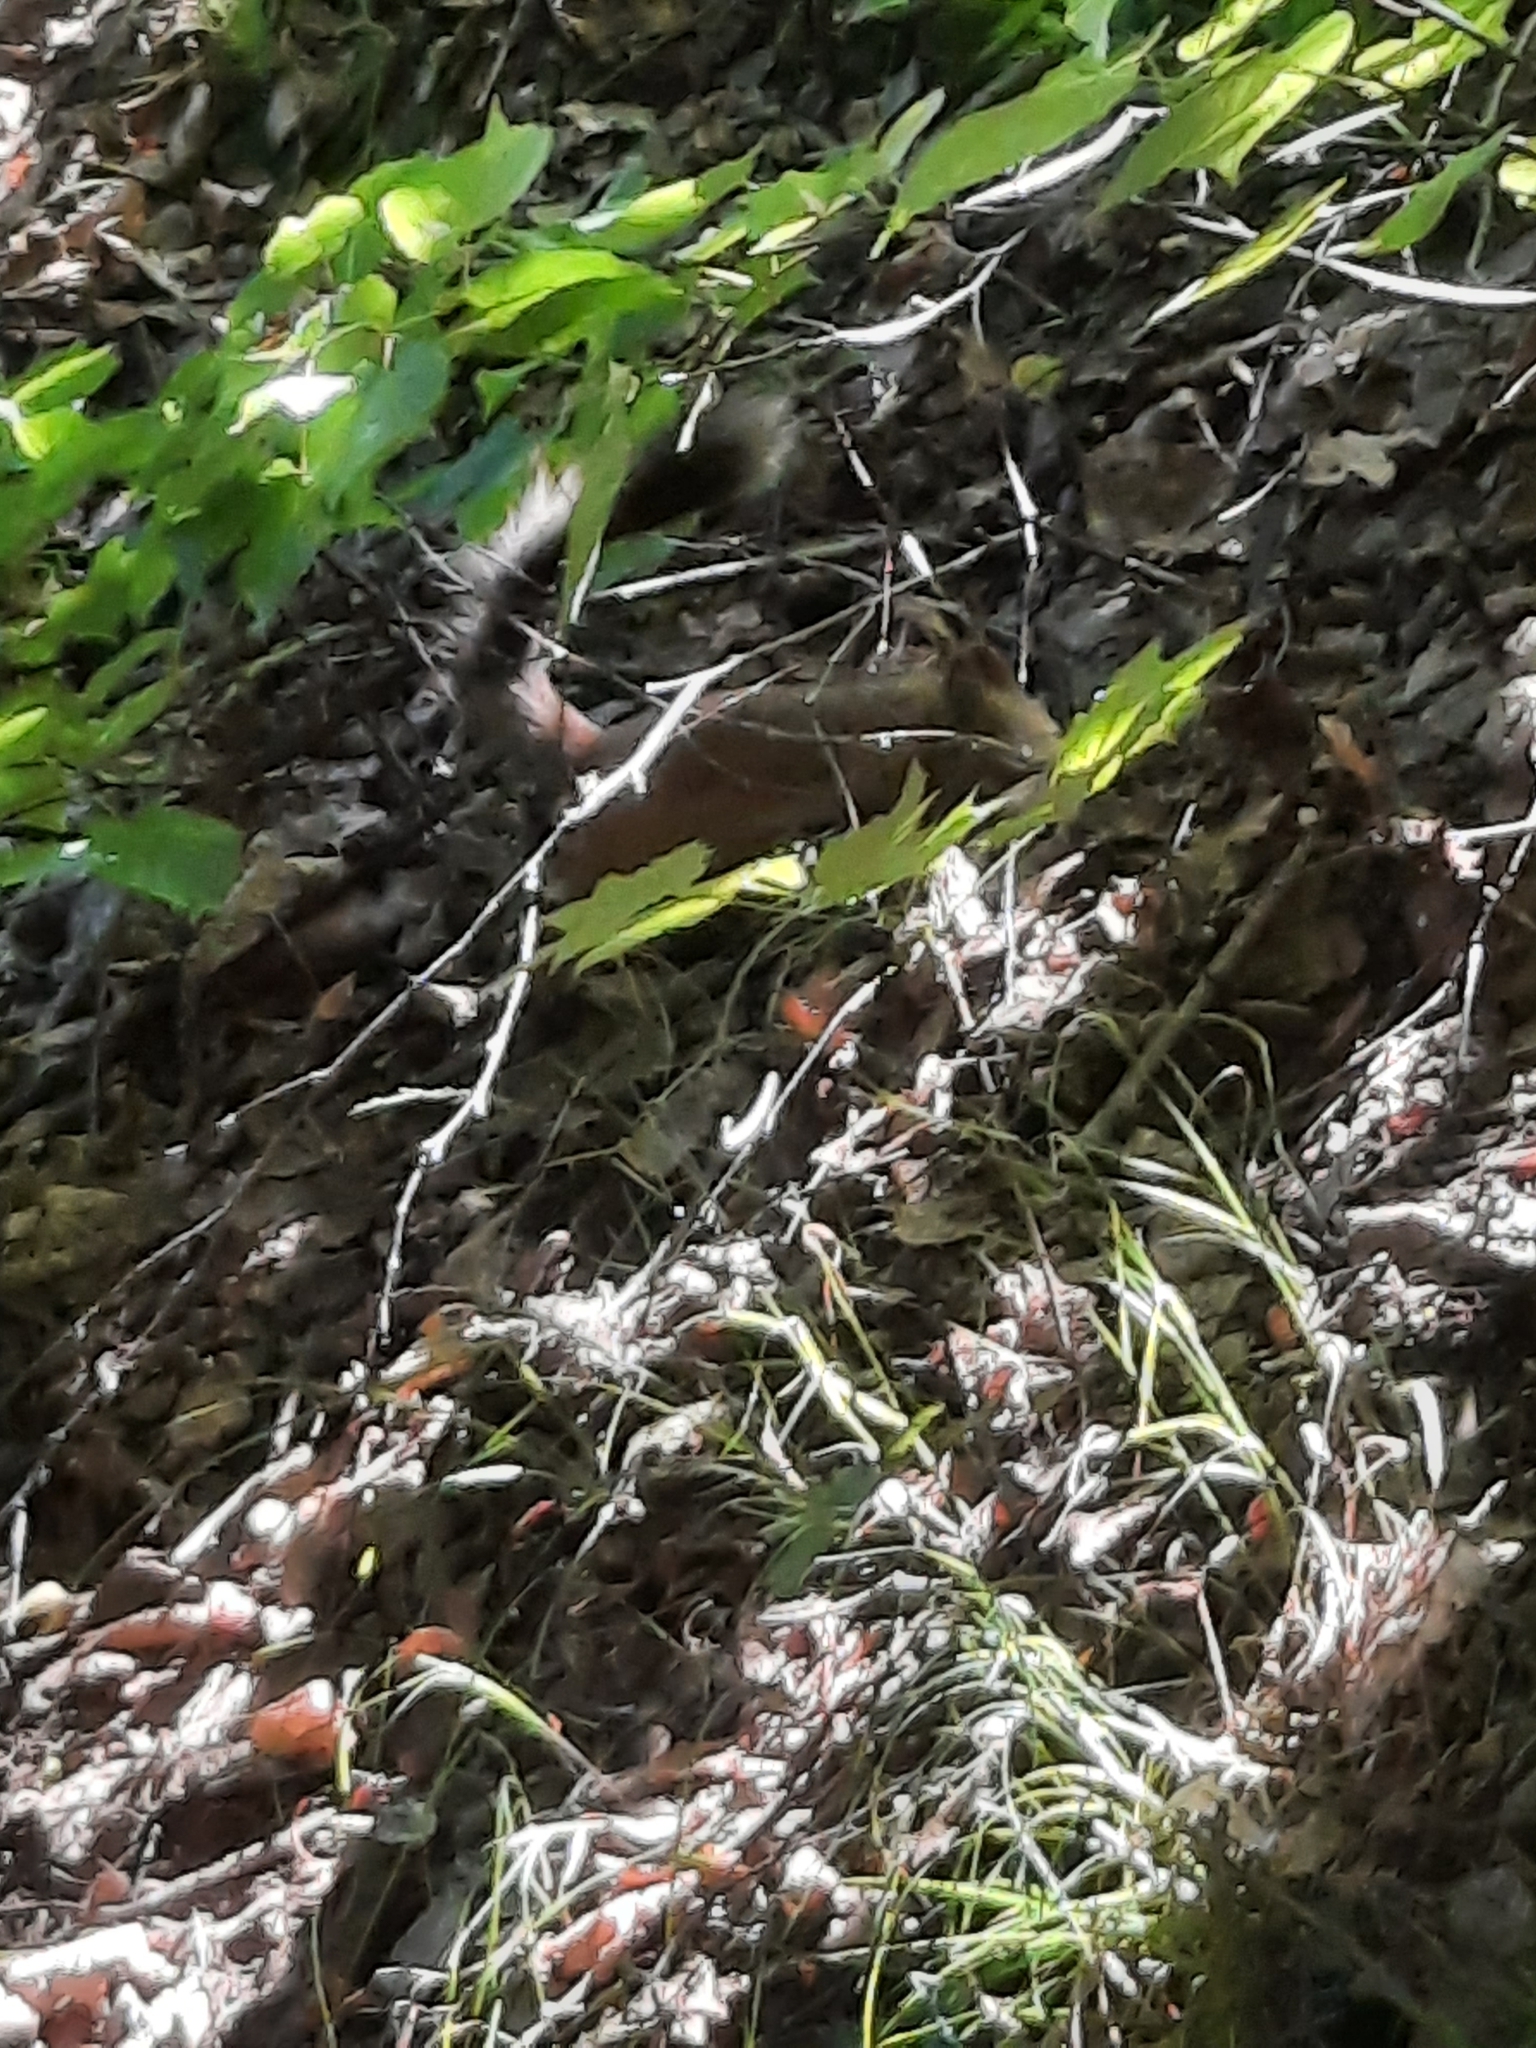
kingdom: Animalia
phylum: Chordata
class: Mammalia
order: Rodentia
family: Sciuridae
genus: Sciurus
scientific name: Sciurus vulgaris
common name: Eurasian red squirrel
